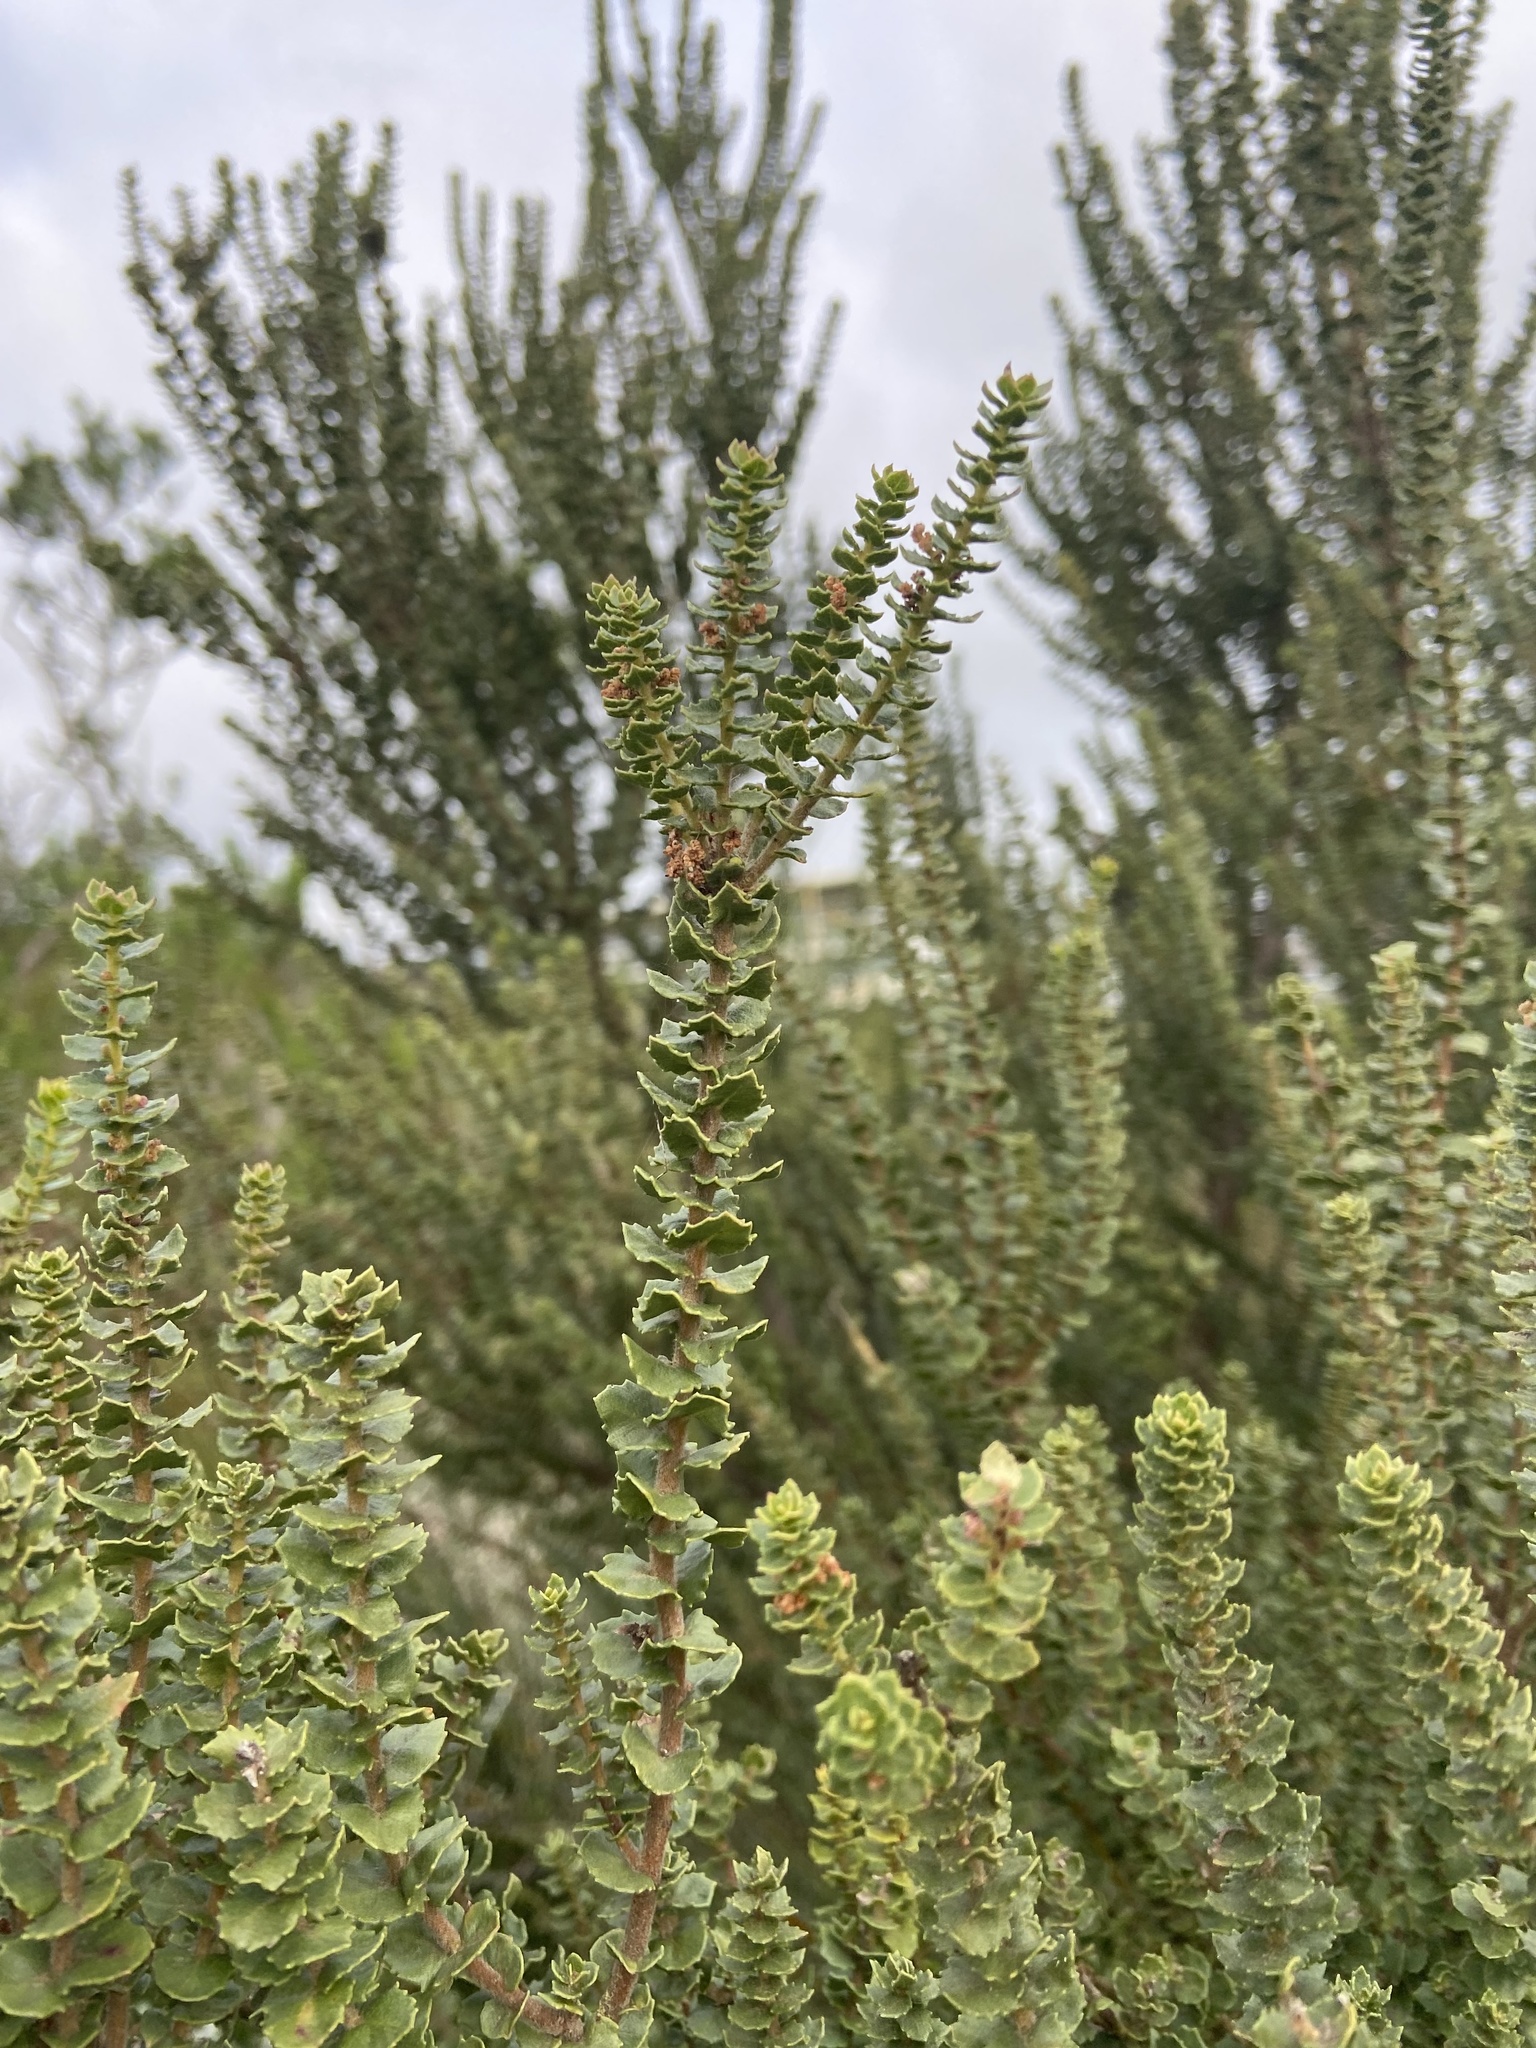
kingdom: Plantae
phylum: Tracheophyta
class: Magnoliopsida
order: Fagales
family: Myricaceae
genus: Morella
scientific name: Morella cordifolia
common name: Waxberry
